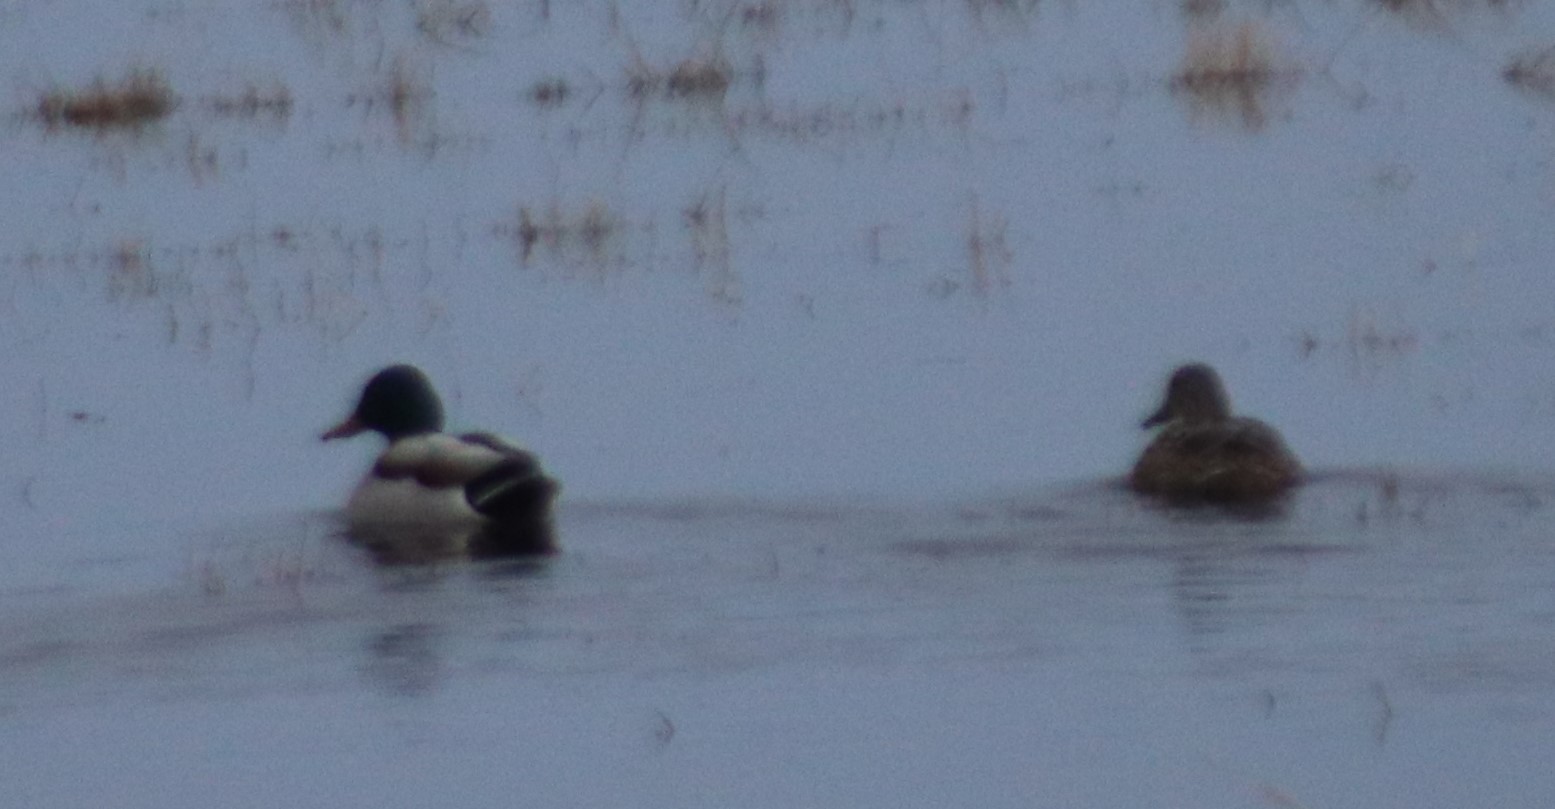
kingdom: Animalia
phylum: Chordata
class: Aves
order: Anseriformes
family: Anatidae
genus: Anas
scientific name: Anas platyrhynchos
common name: Mallard
